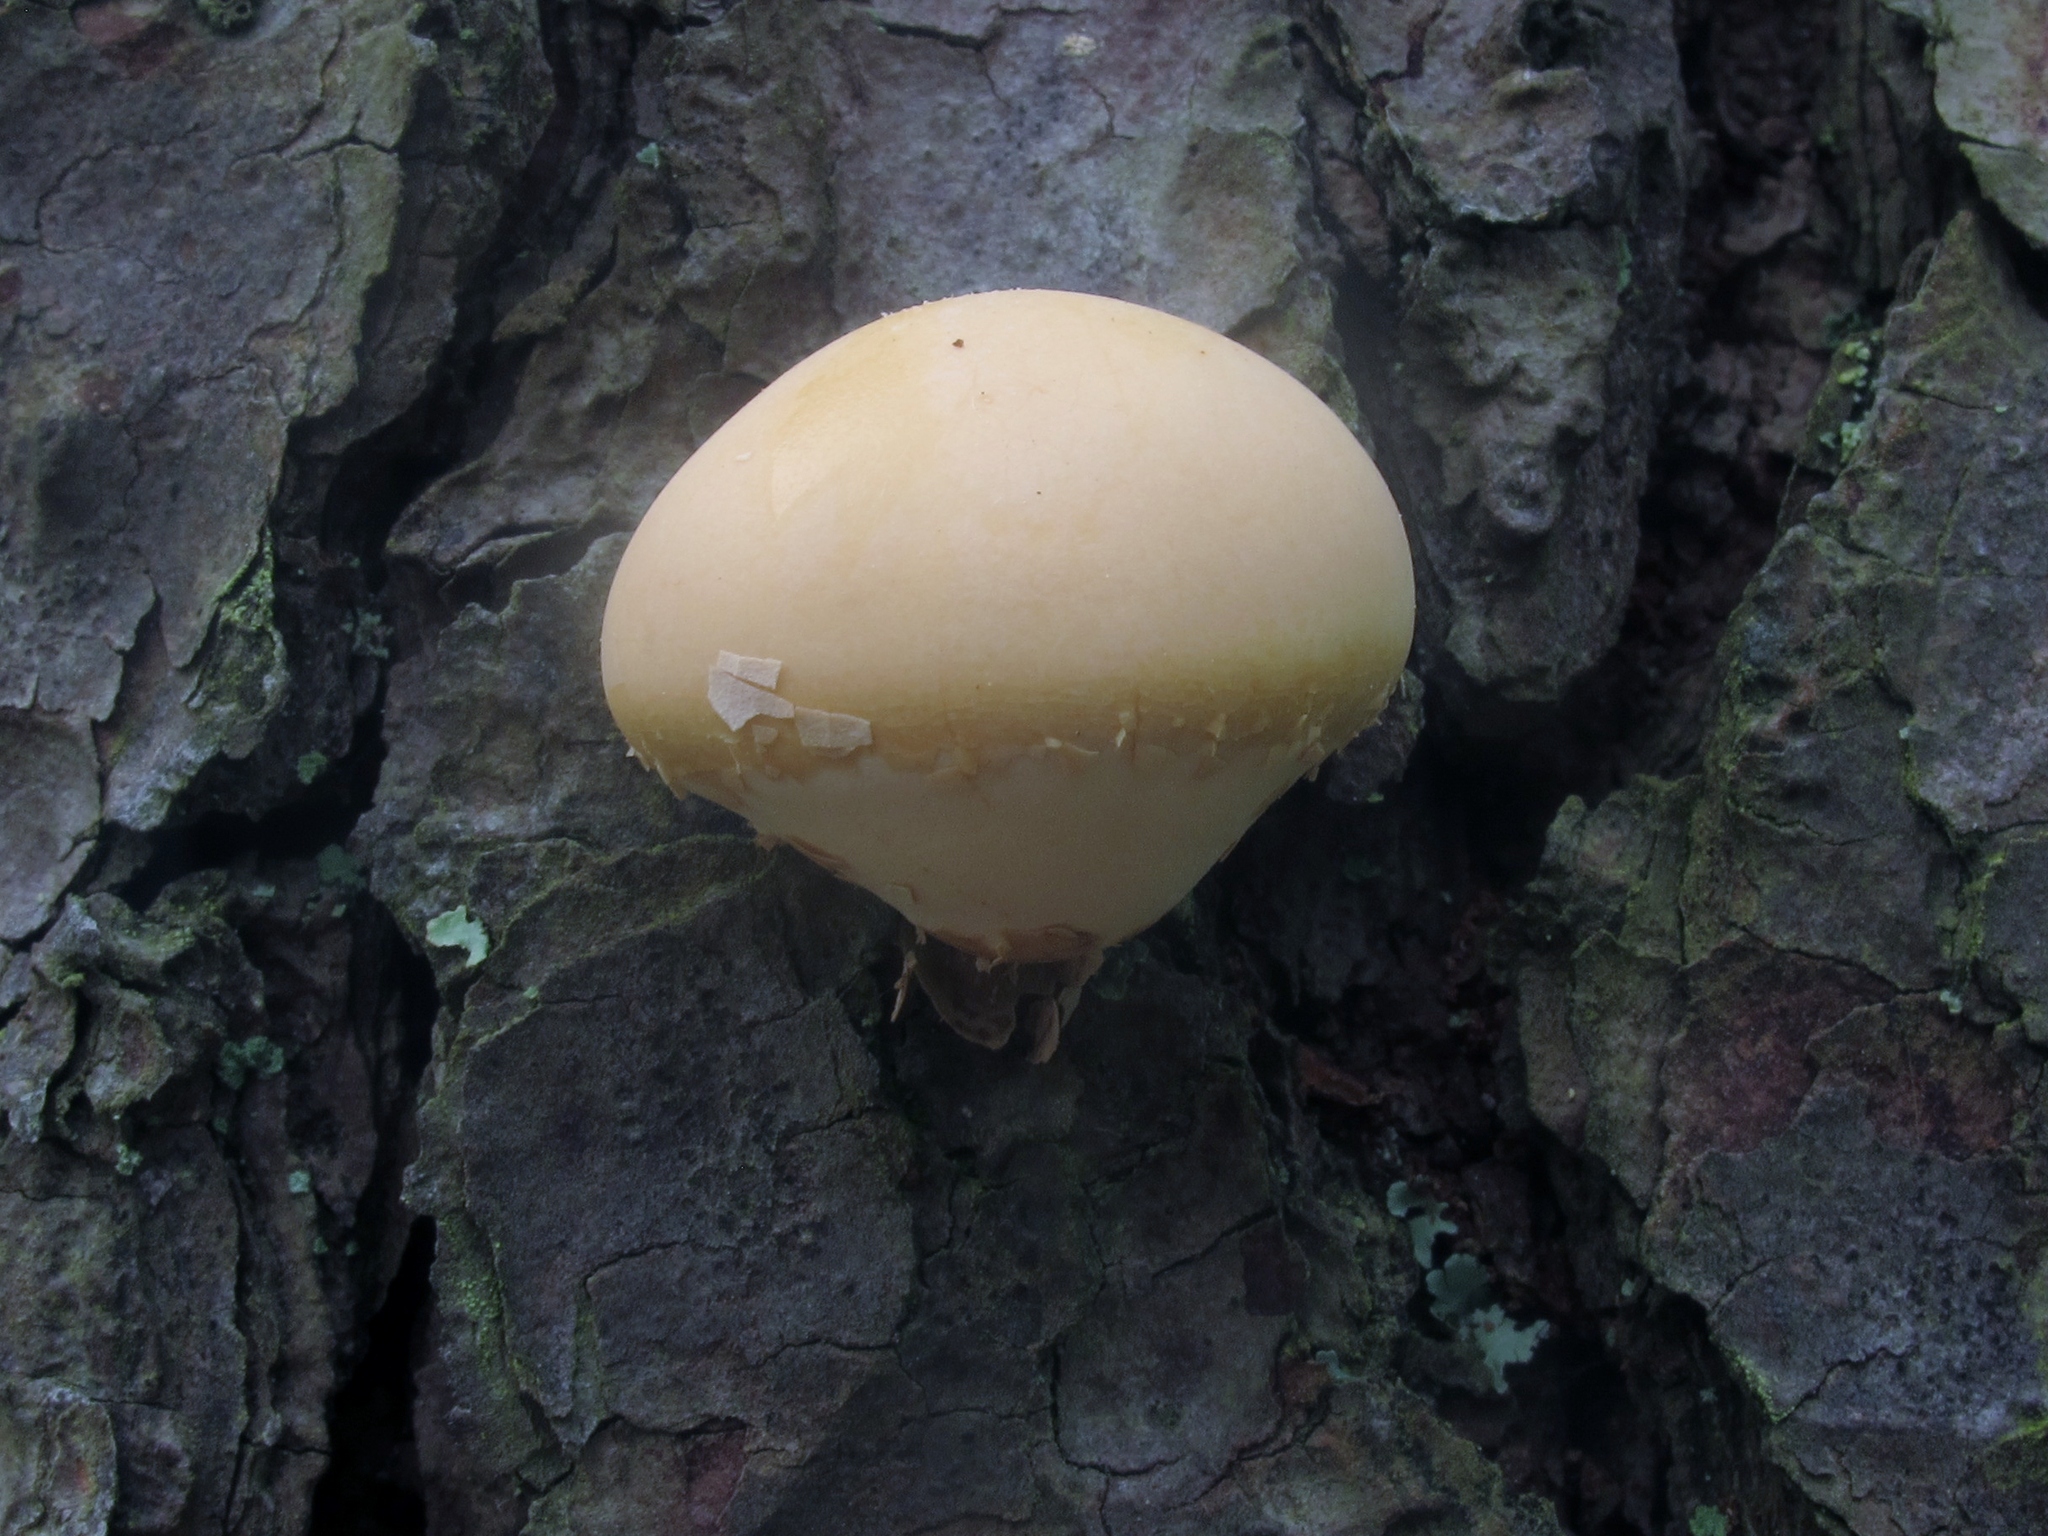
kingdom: Fungi
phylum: Basidiomycota
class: Agaricomycetes
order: Polyporales
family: Polyporaceae
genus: Cryptoporus
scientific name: Cryptoporus volvatus
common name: Veiled polypore
